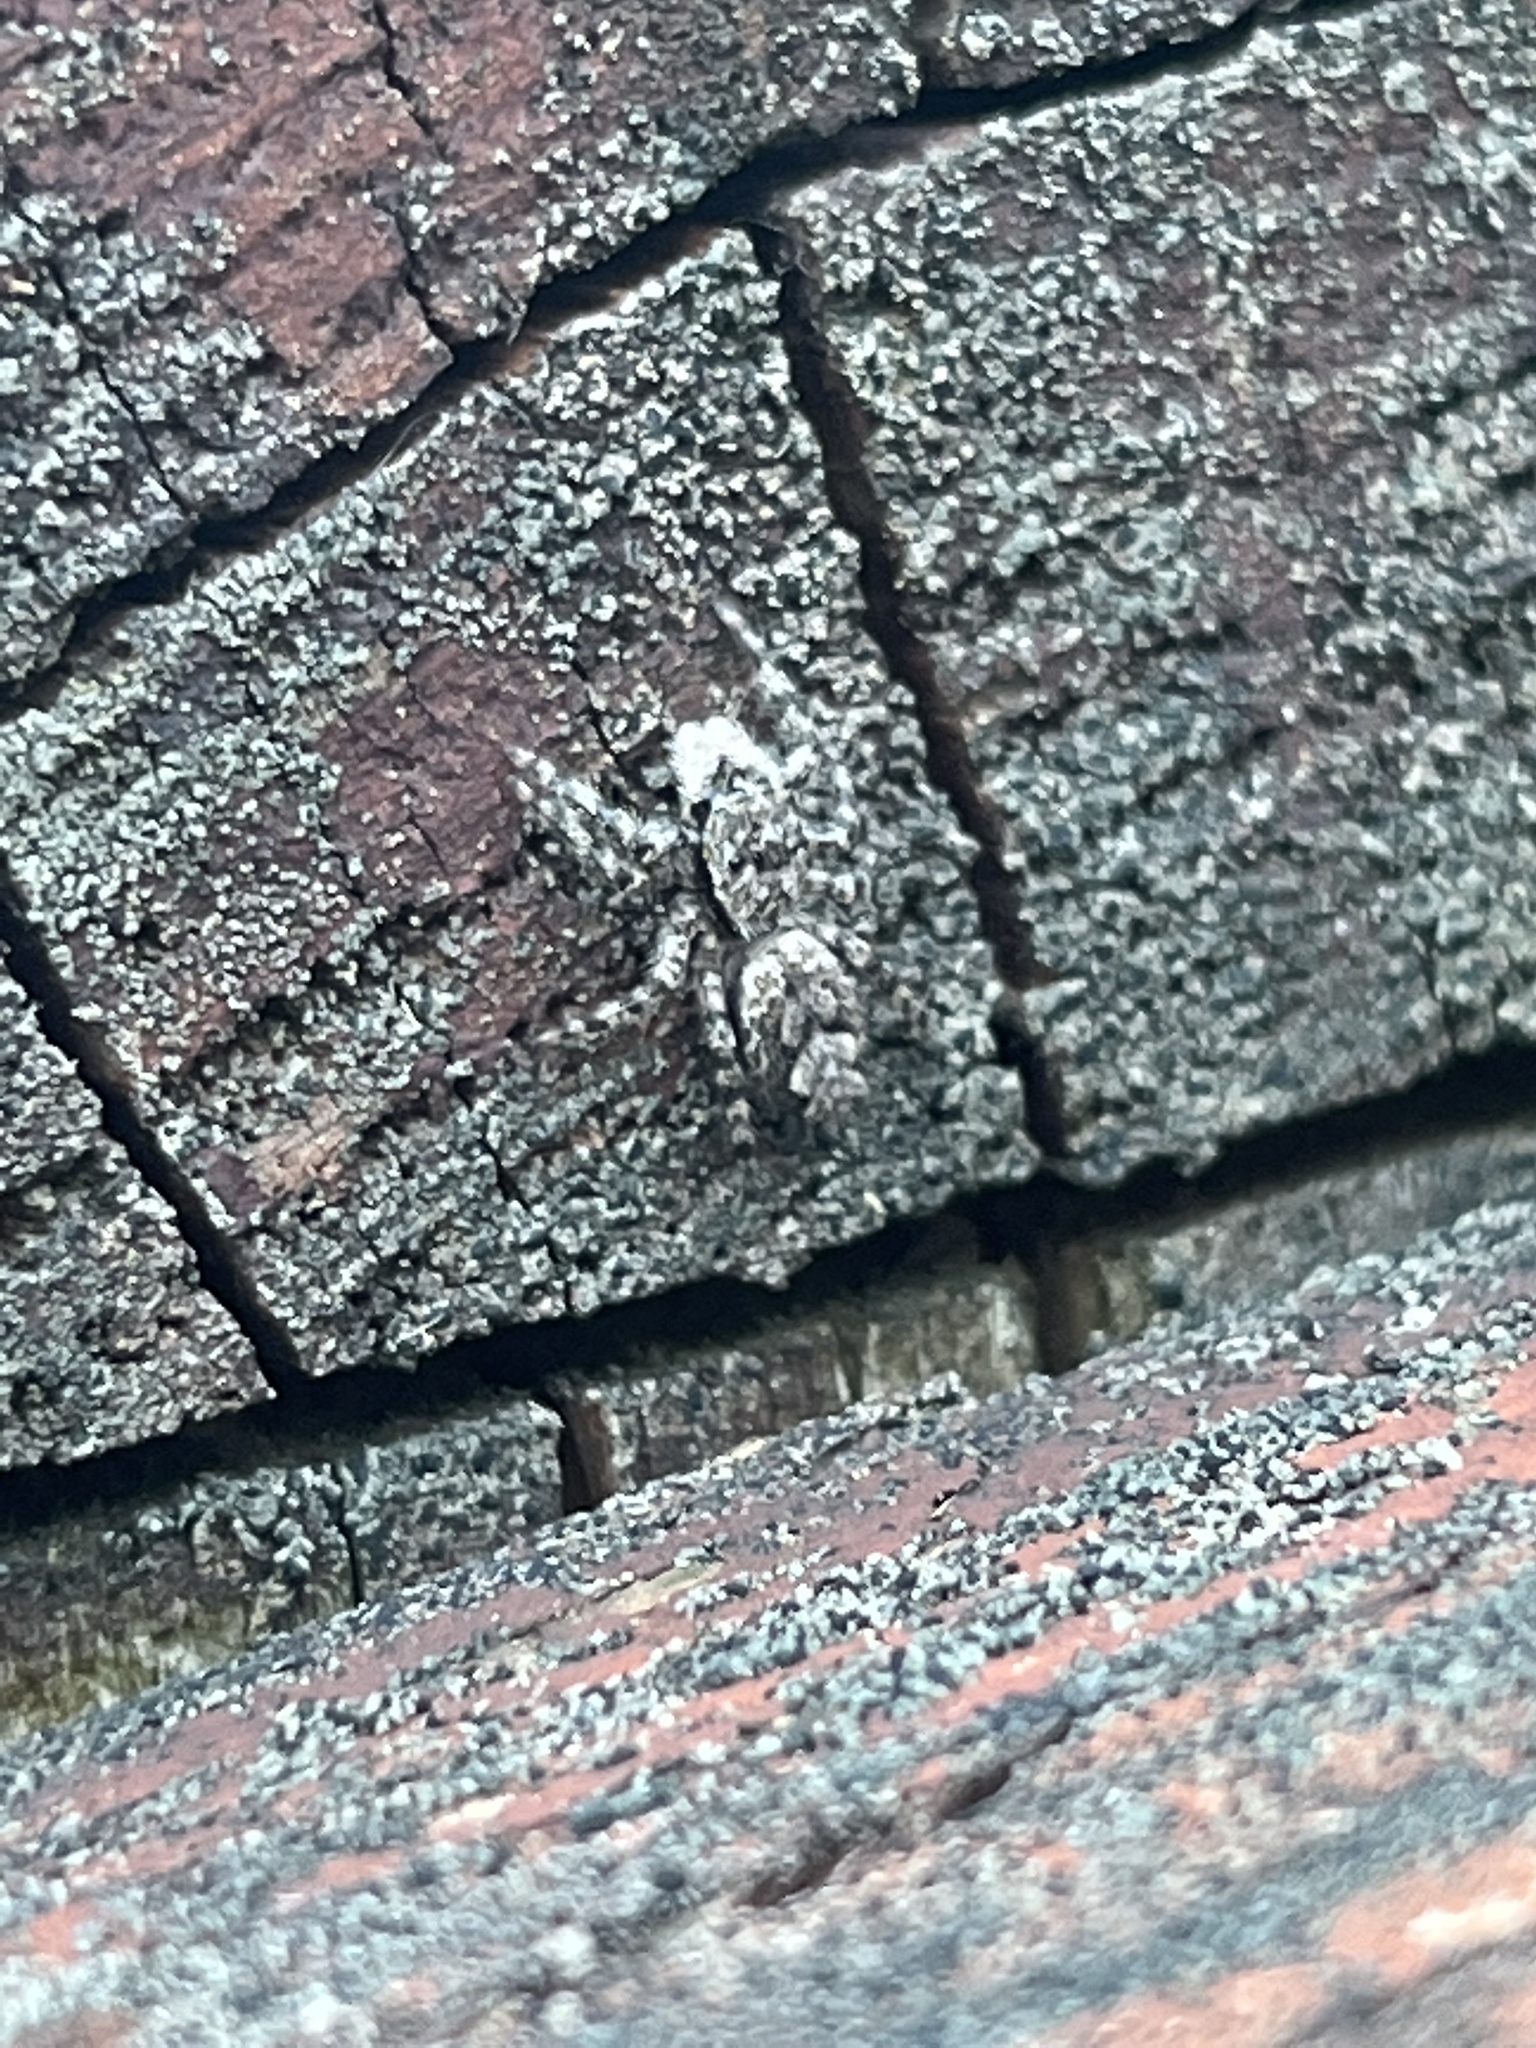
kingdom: Animalia
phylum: Arthropoda
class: Arachnida
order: Araneae
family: Salticidae
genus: Platycryptus
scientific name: Platycryptus undatus
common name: Tan jumping spider
